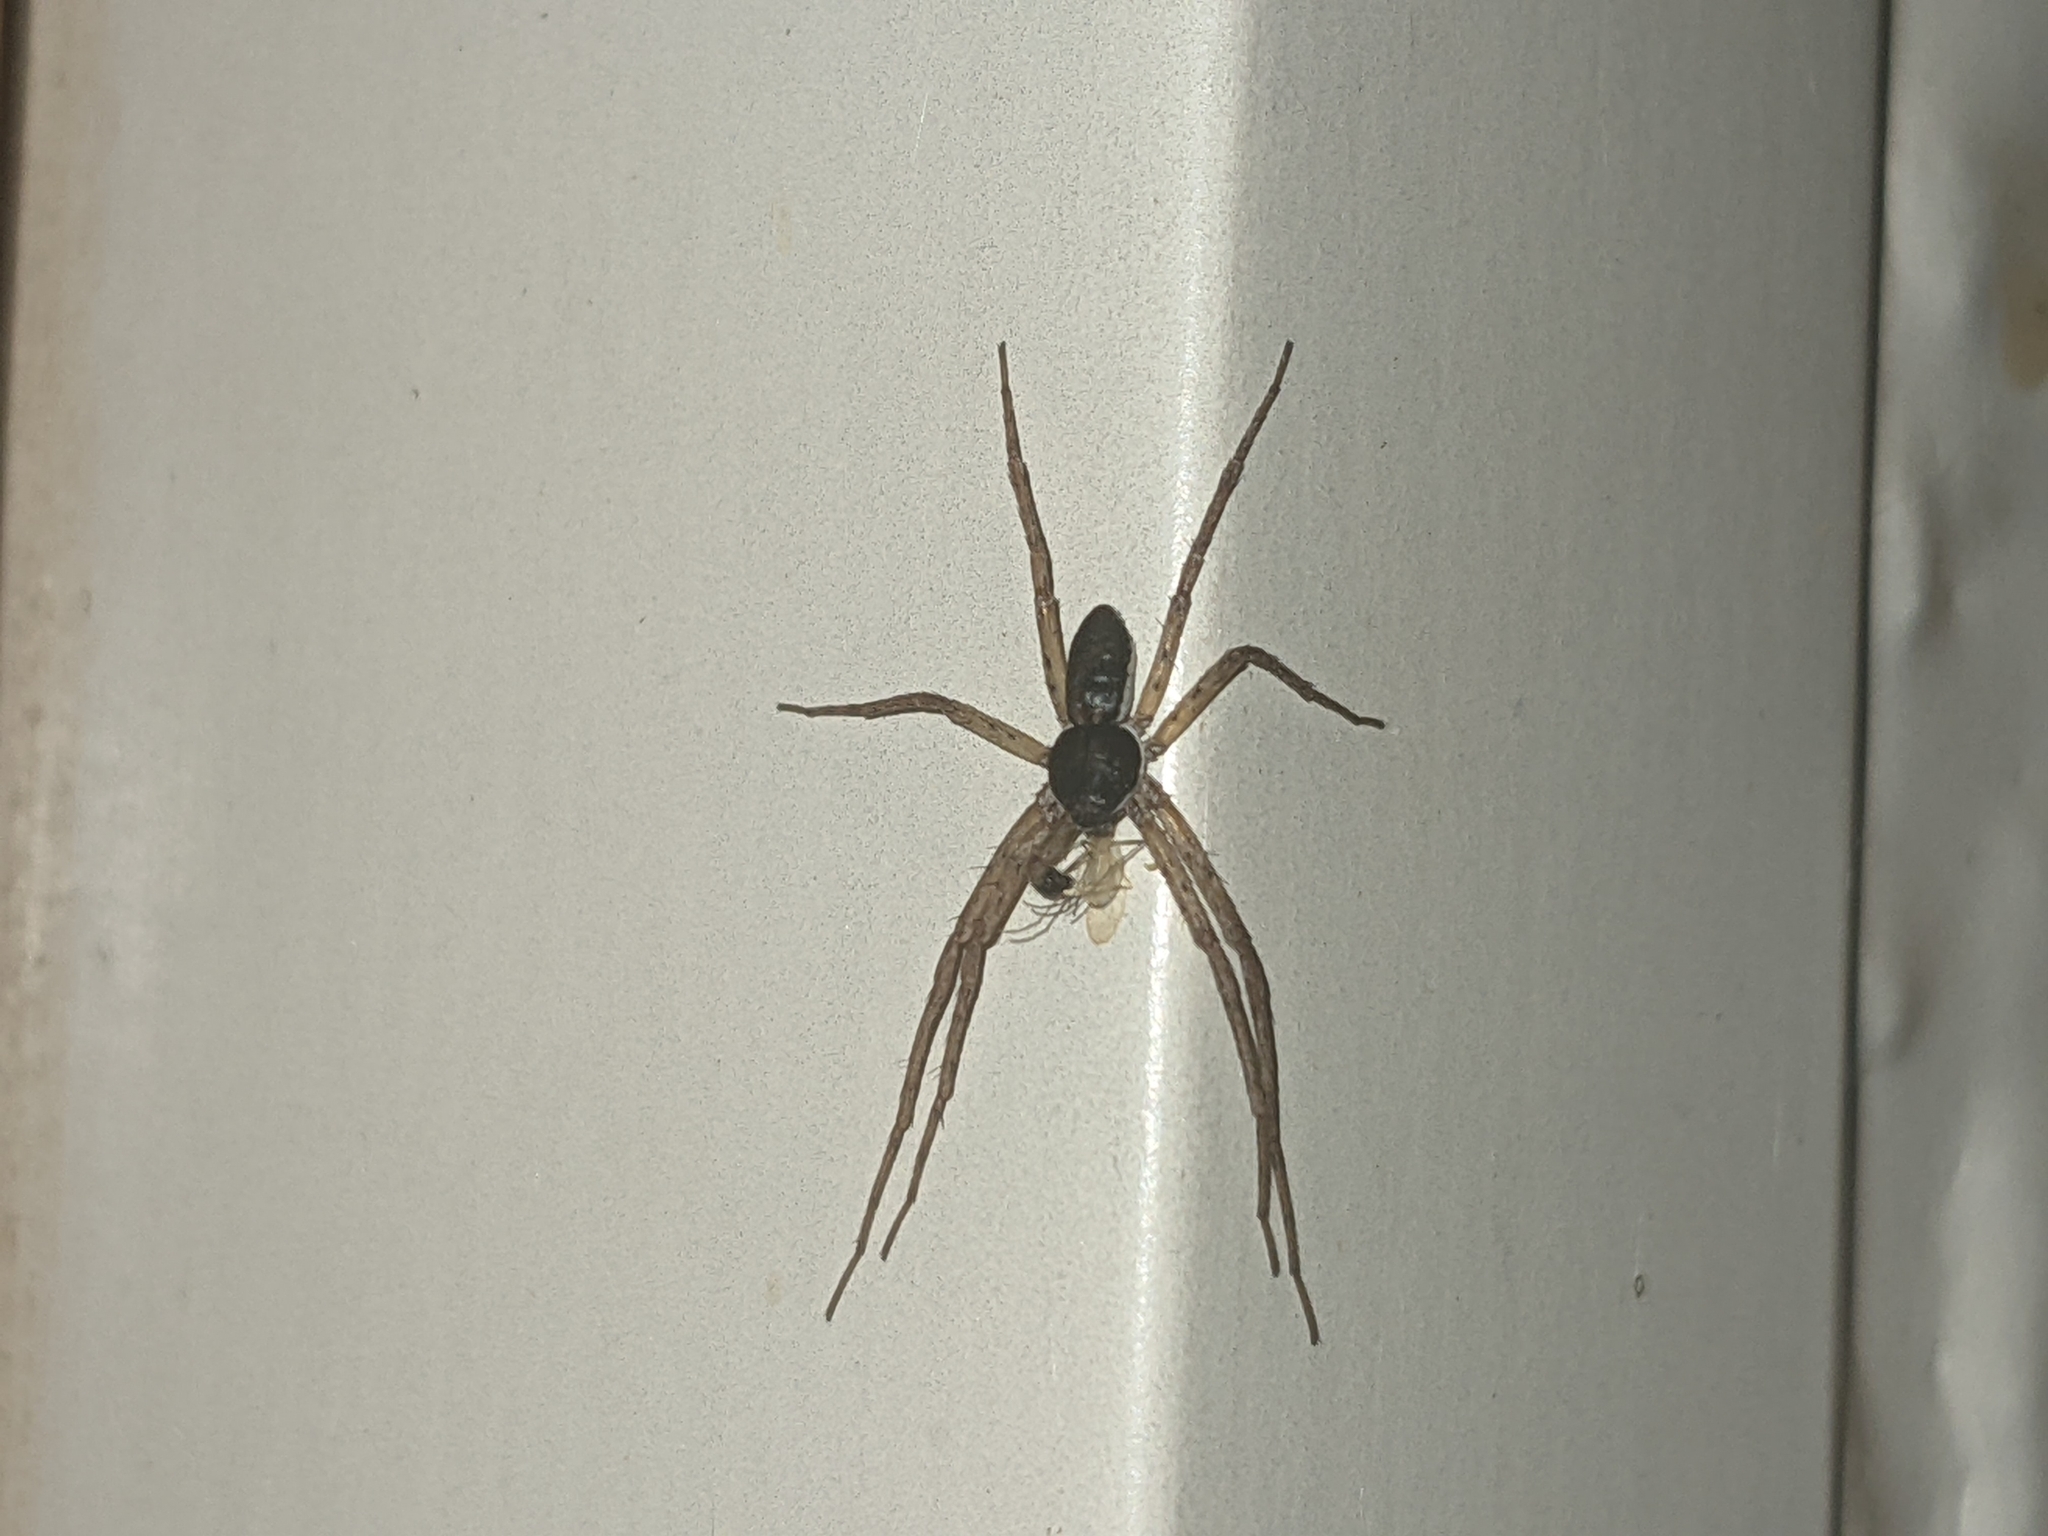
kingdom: Animalia
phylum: Arthropoda
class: Arachnida
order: Araneae
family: Philodromidae
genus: Philodromus
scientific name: Philodromus dispar
